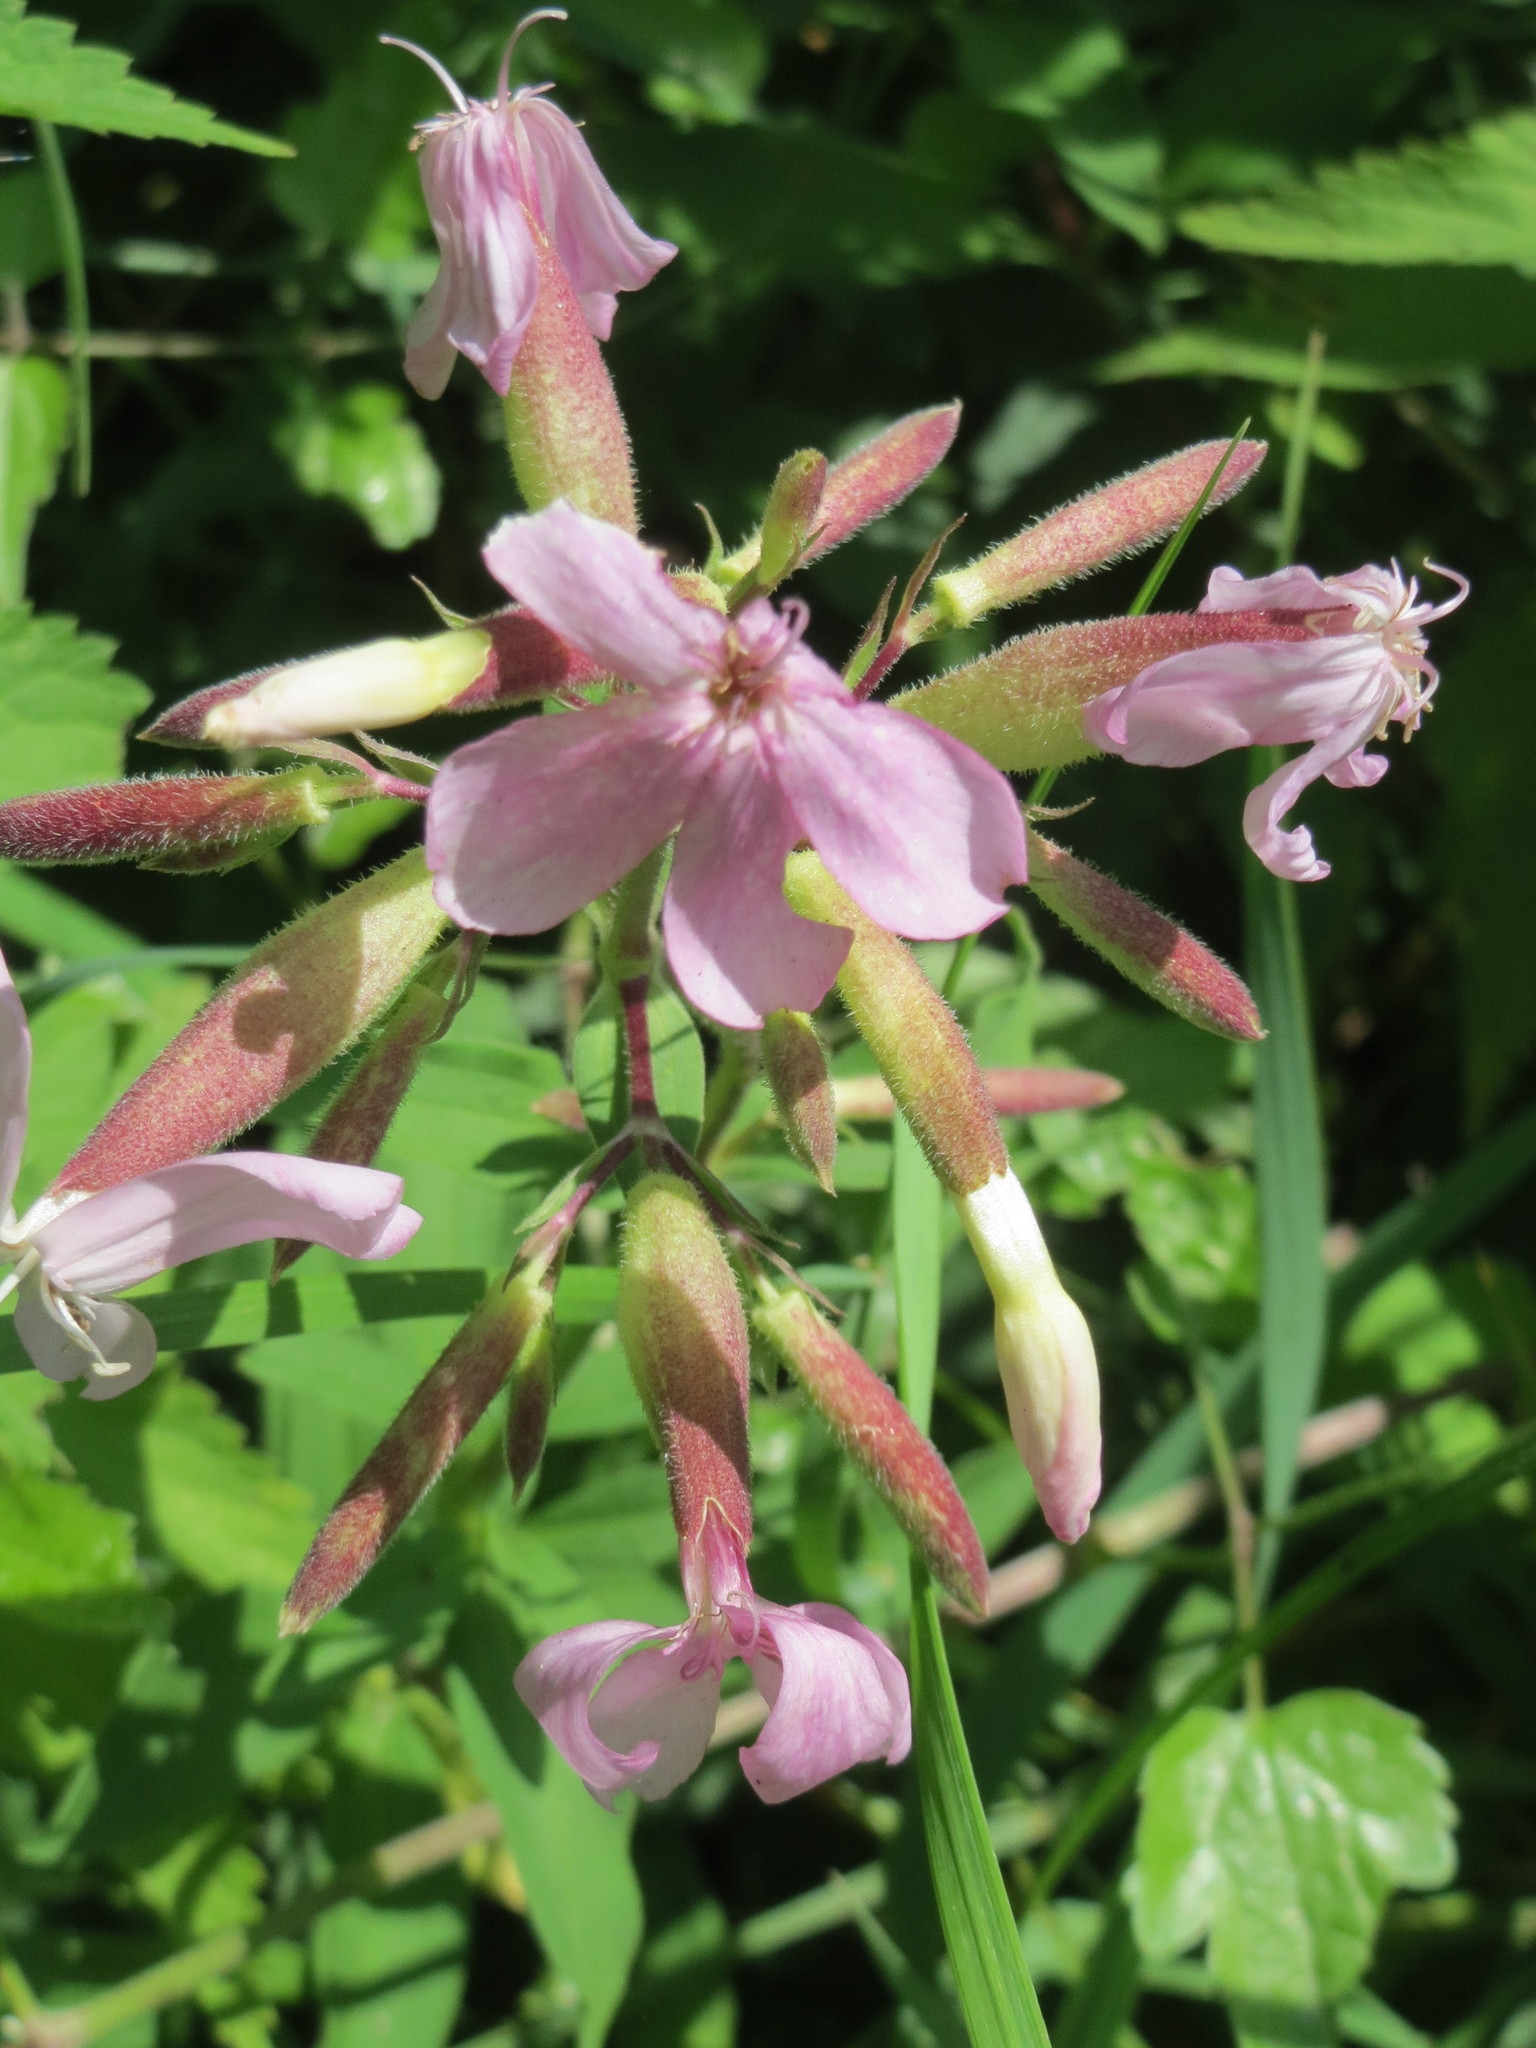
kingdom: Plantae
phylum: Tracheophyta
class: Magnoliopsida
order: Caryophyllales
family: Caryophyllaceae
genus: Saponaria
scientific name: Saponaria officinalis
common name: Soapwort
